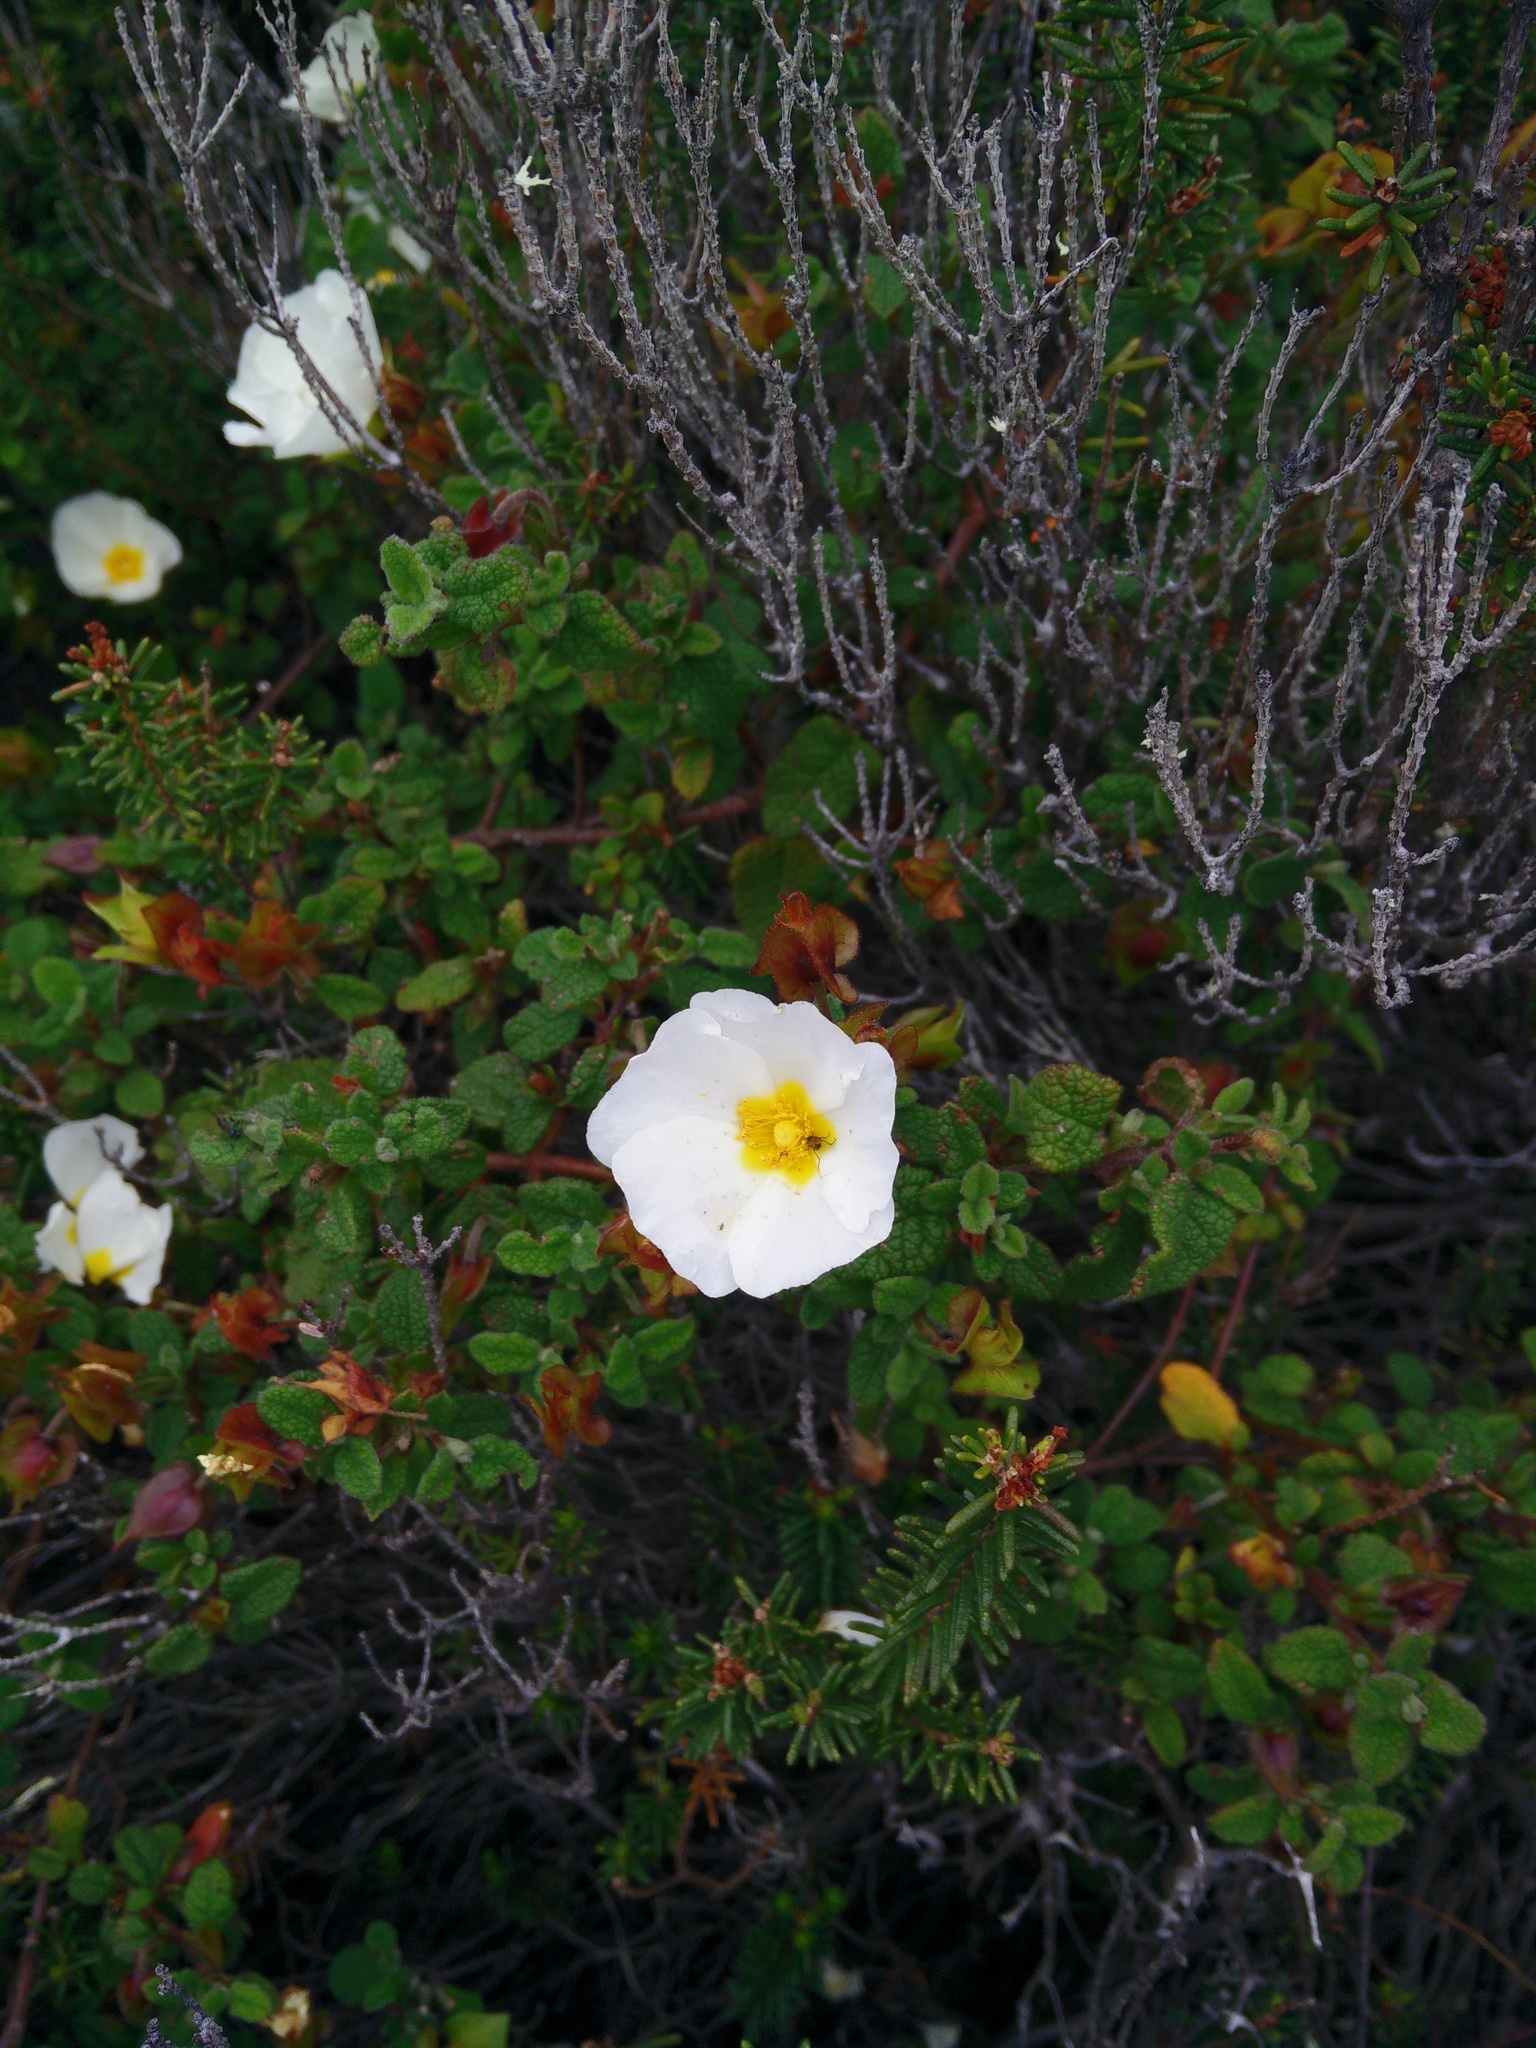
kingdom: Plantae
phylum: Tracheophyta
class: Magnoliopsida
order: Malvales
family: Cistaceae
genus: Cistus
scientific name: Cistus salviifolius
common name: Salvia cistus
